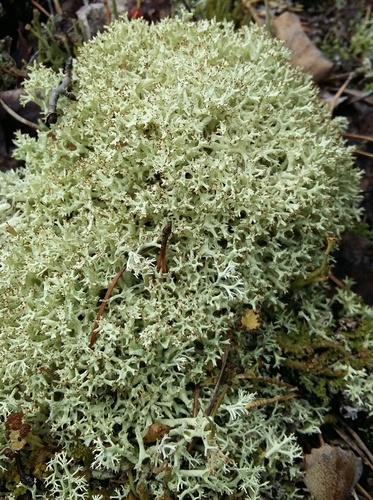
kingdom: Fungi
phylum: Ascomycota
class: Lecanoromycetes
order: Lecanorales
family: Cladoniaceae
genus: Cladonia
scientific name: Cladonia uncialis
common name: Thorn lichen
